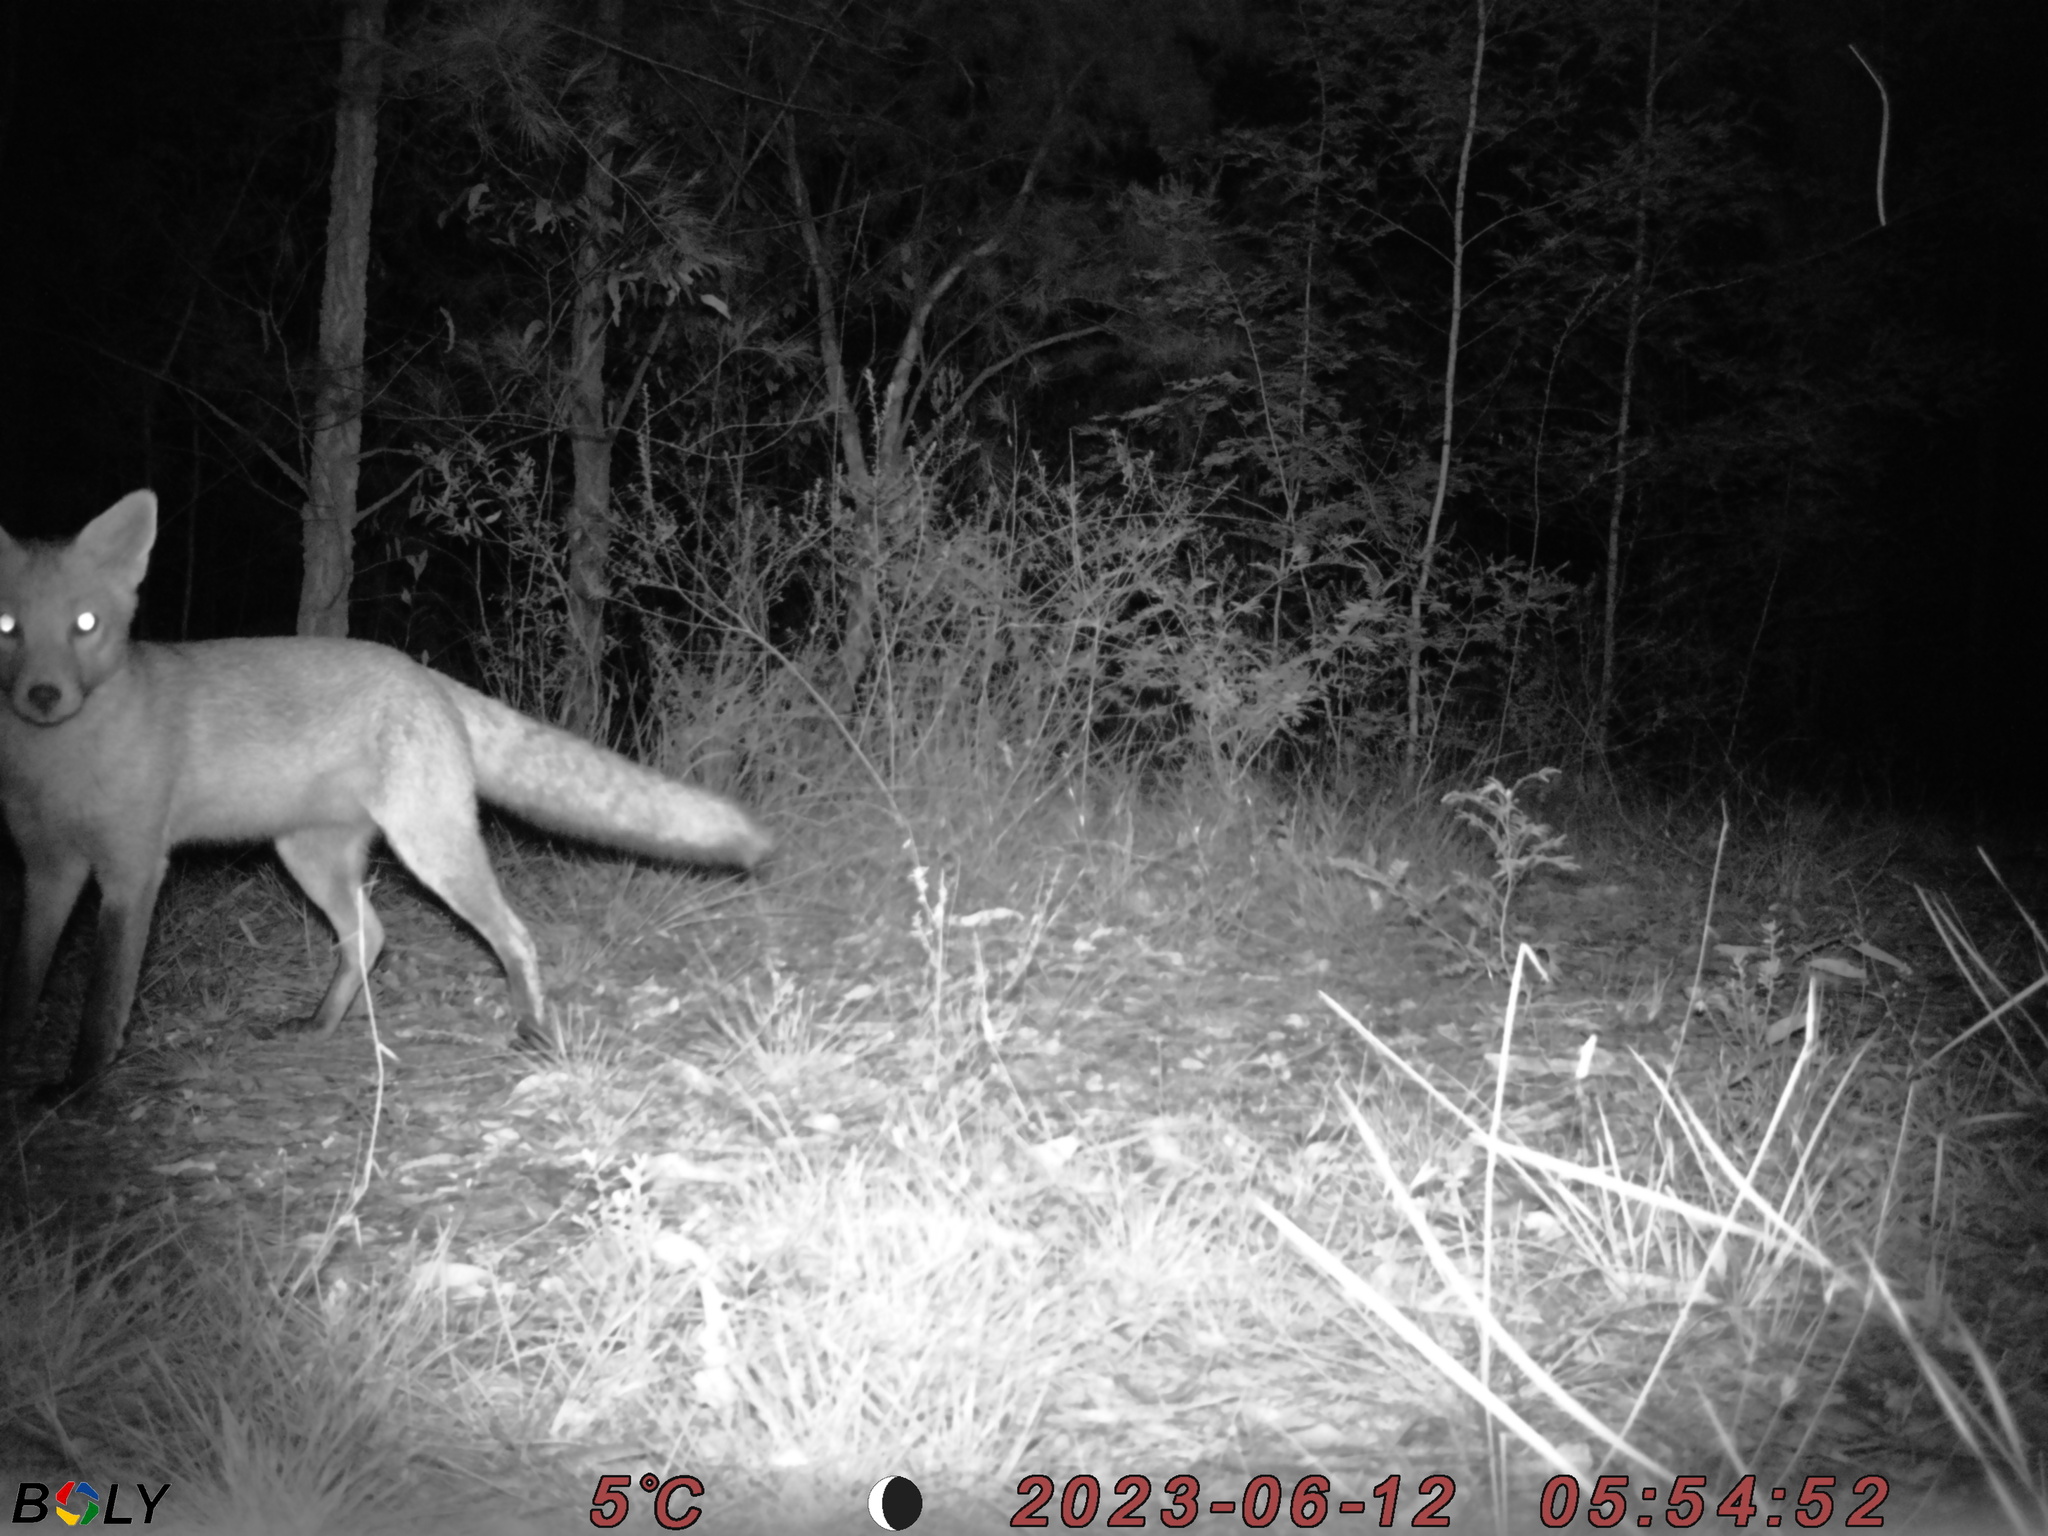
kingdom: Animalia
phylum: Chordata
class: Mammalia
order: Carnivora
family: Canidae
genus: Vulpes
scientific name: Vulpes vulpes
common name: Red fox
